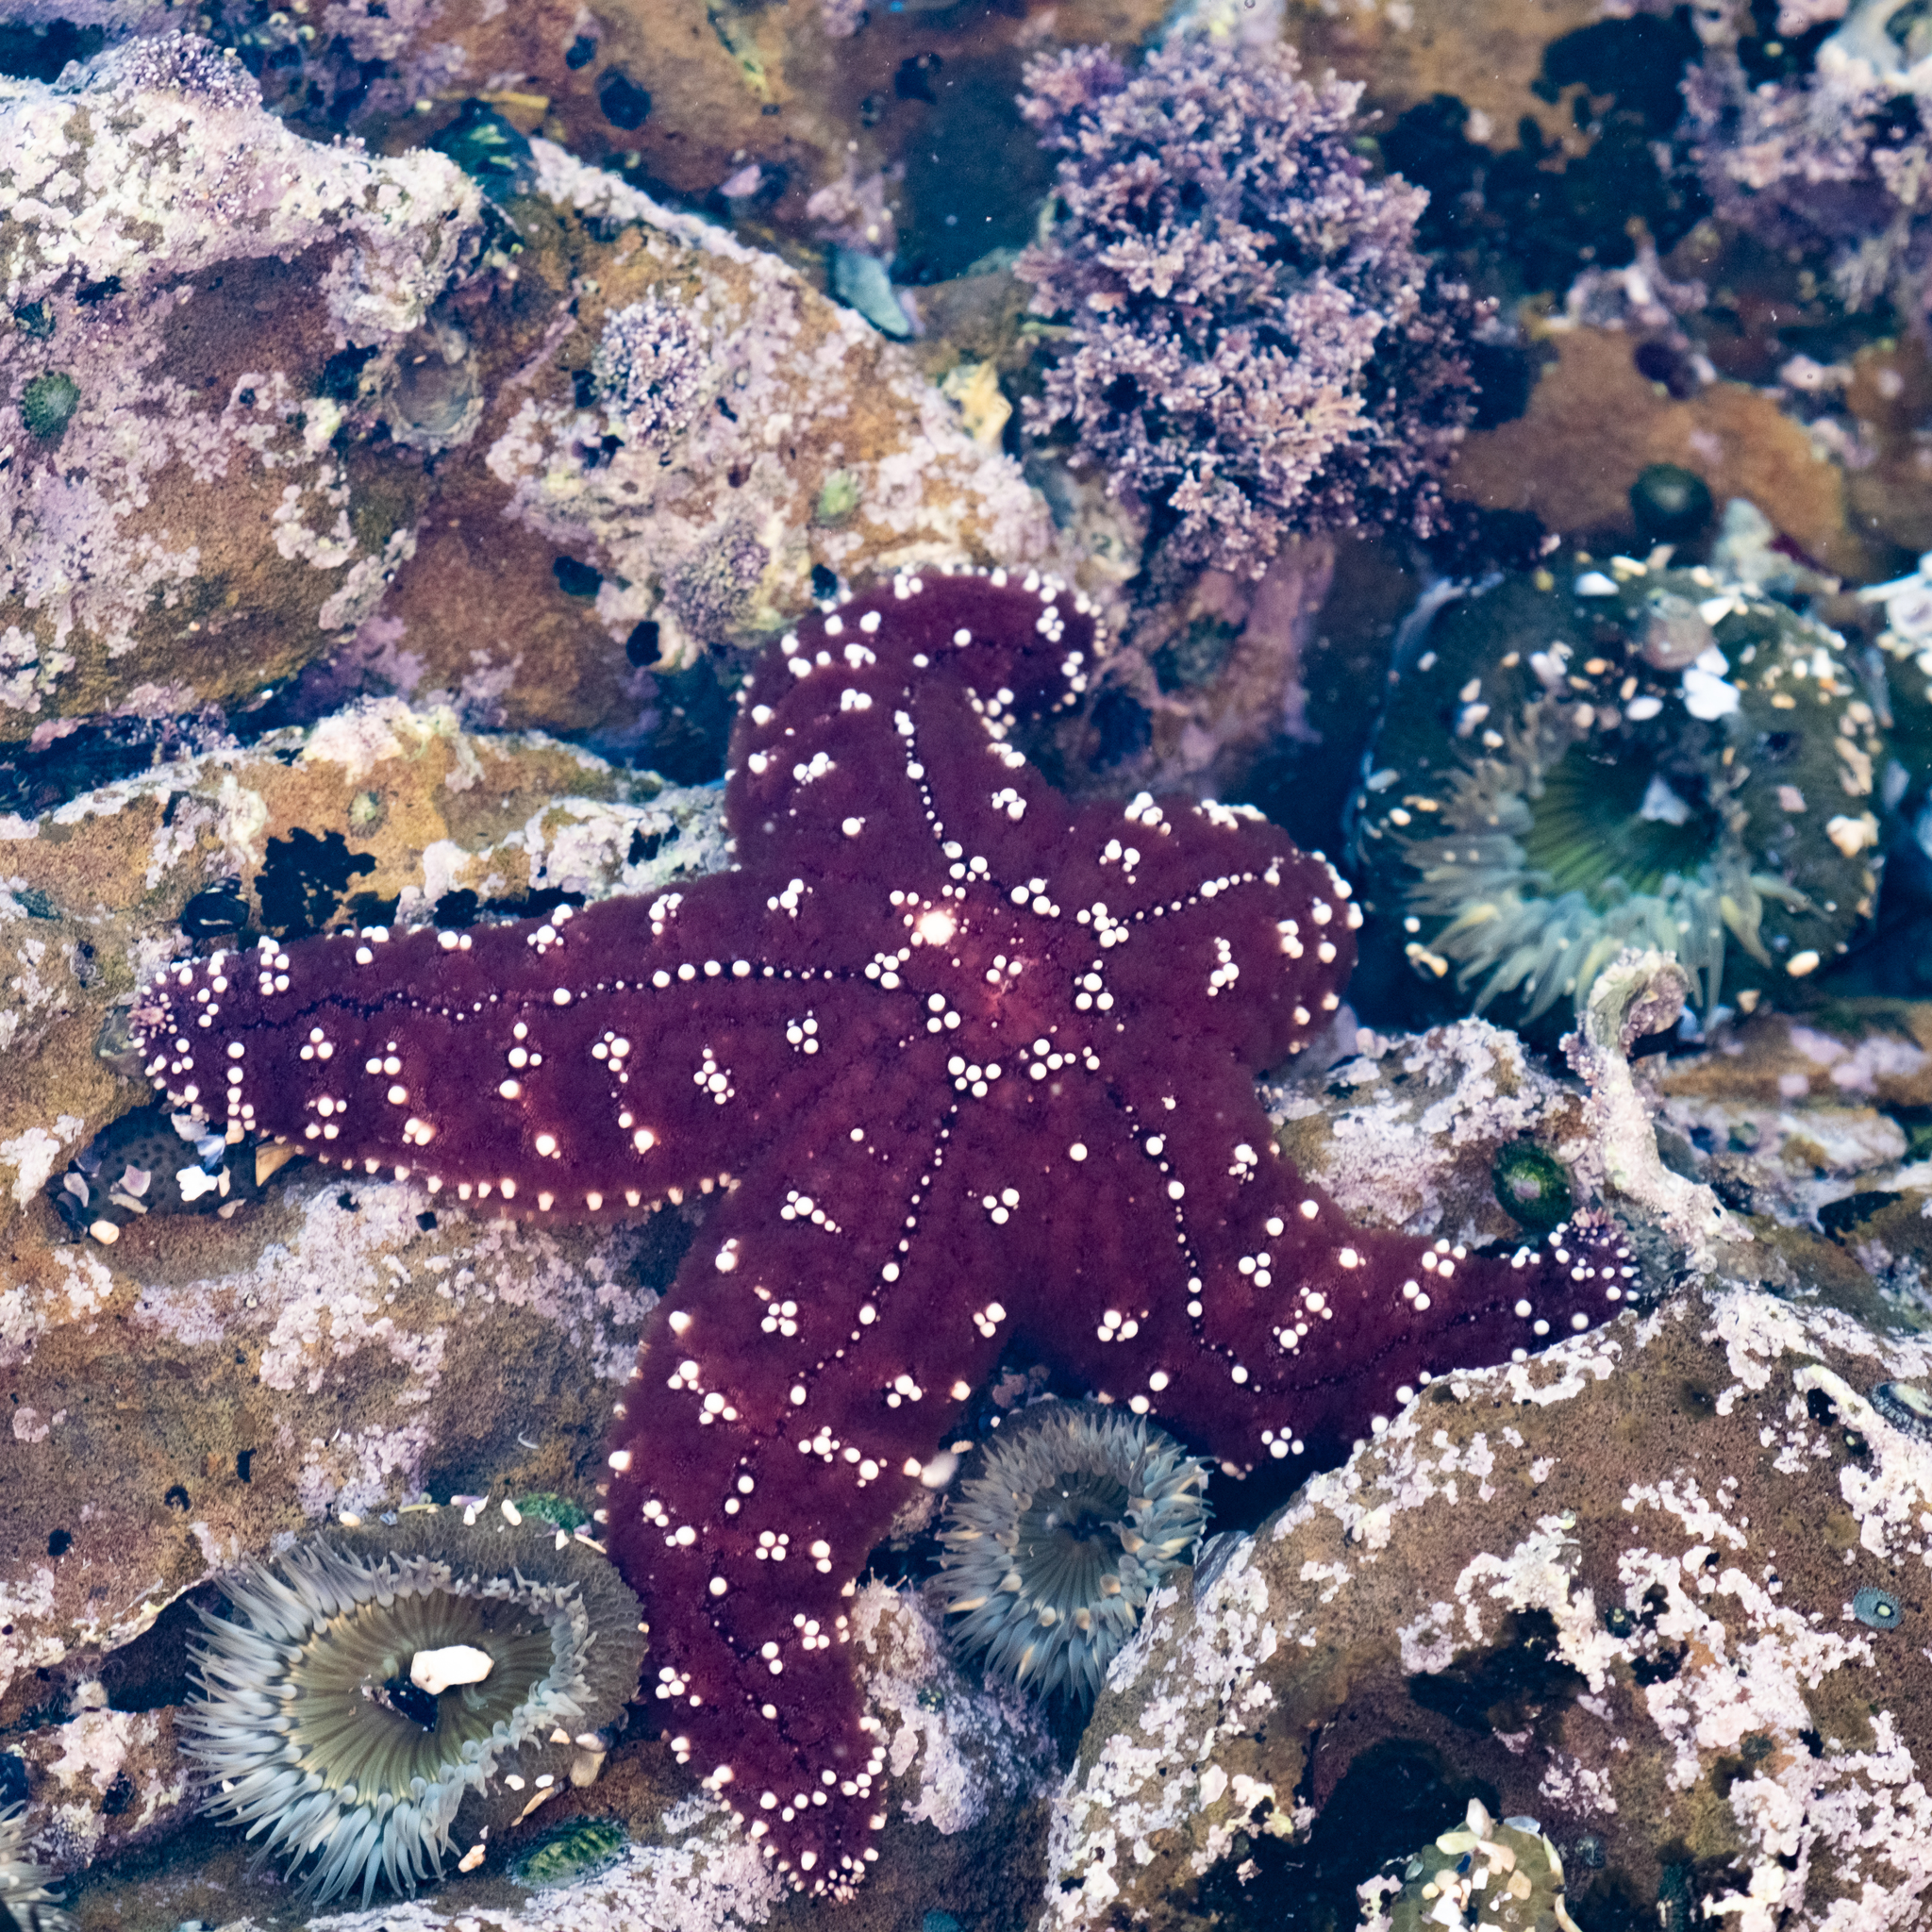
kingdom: Animalia
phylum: Echinodermata
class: Asteroidea
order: Forcipulatida
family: Asteriidae
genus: Pisaster
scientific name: Pisaster ochraceus
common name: Ochre stars
